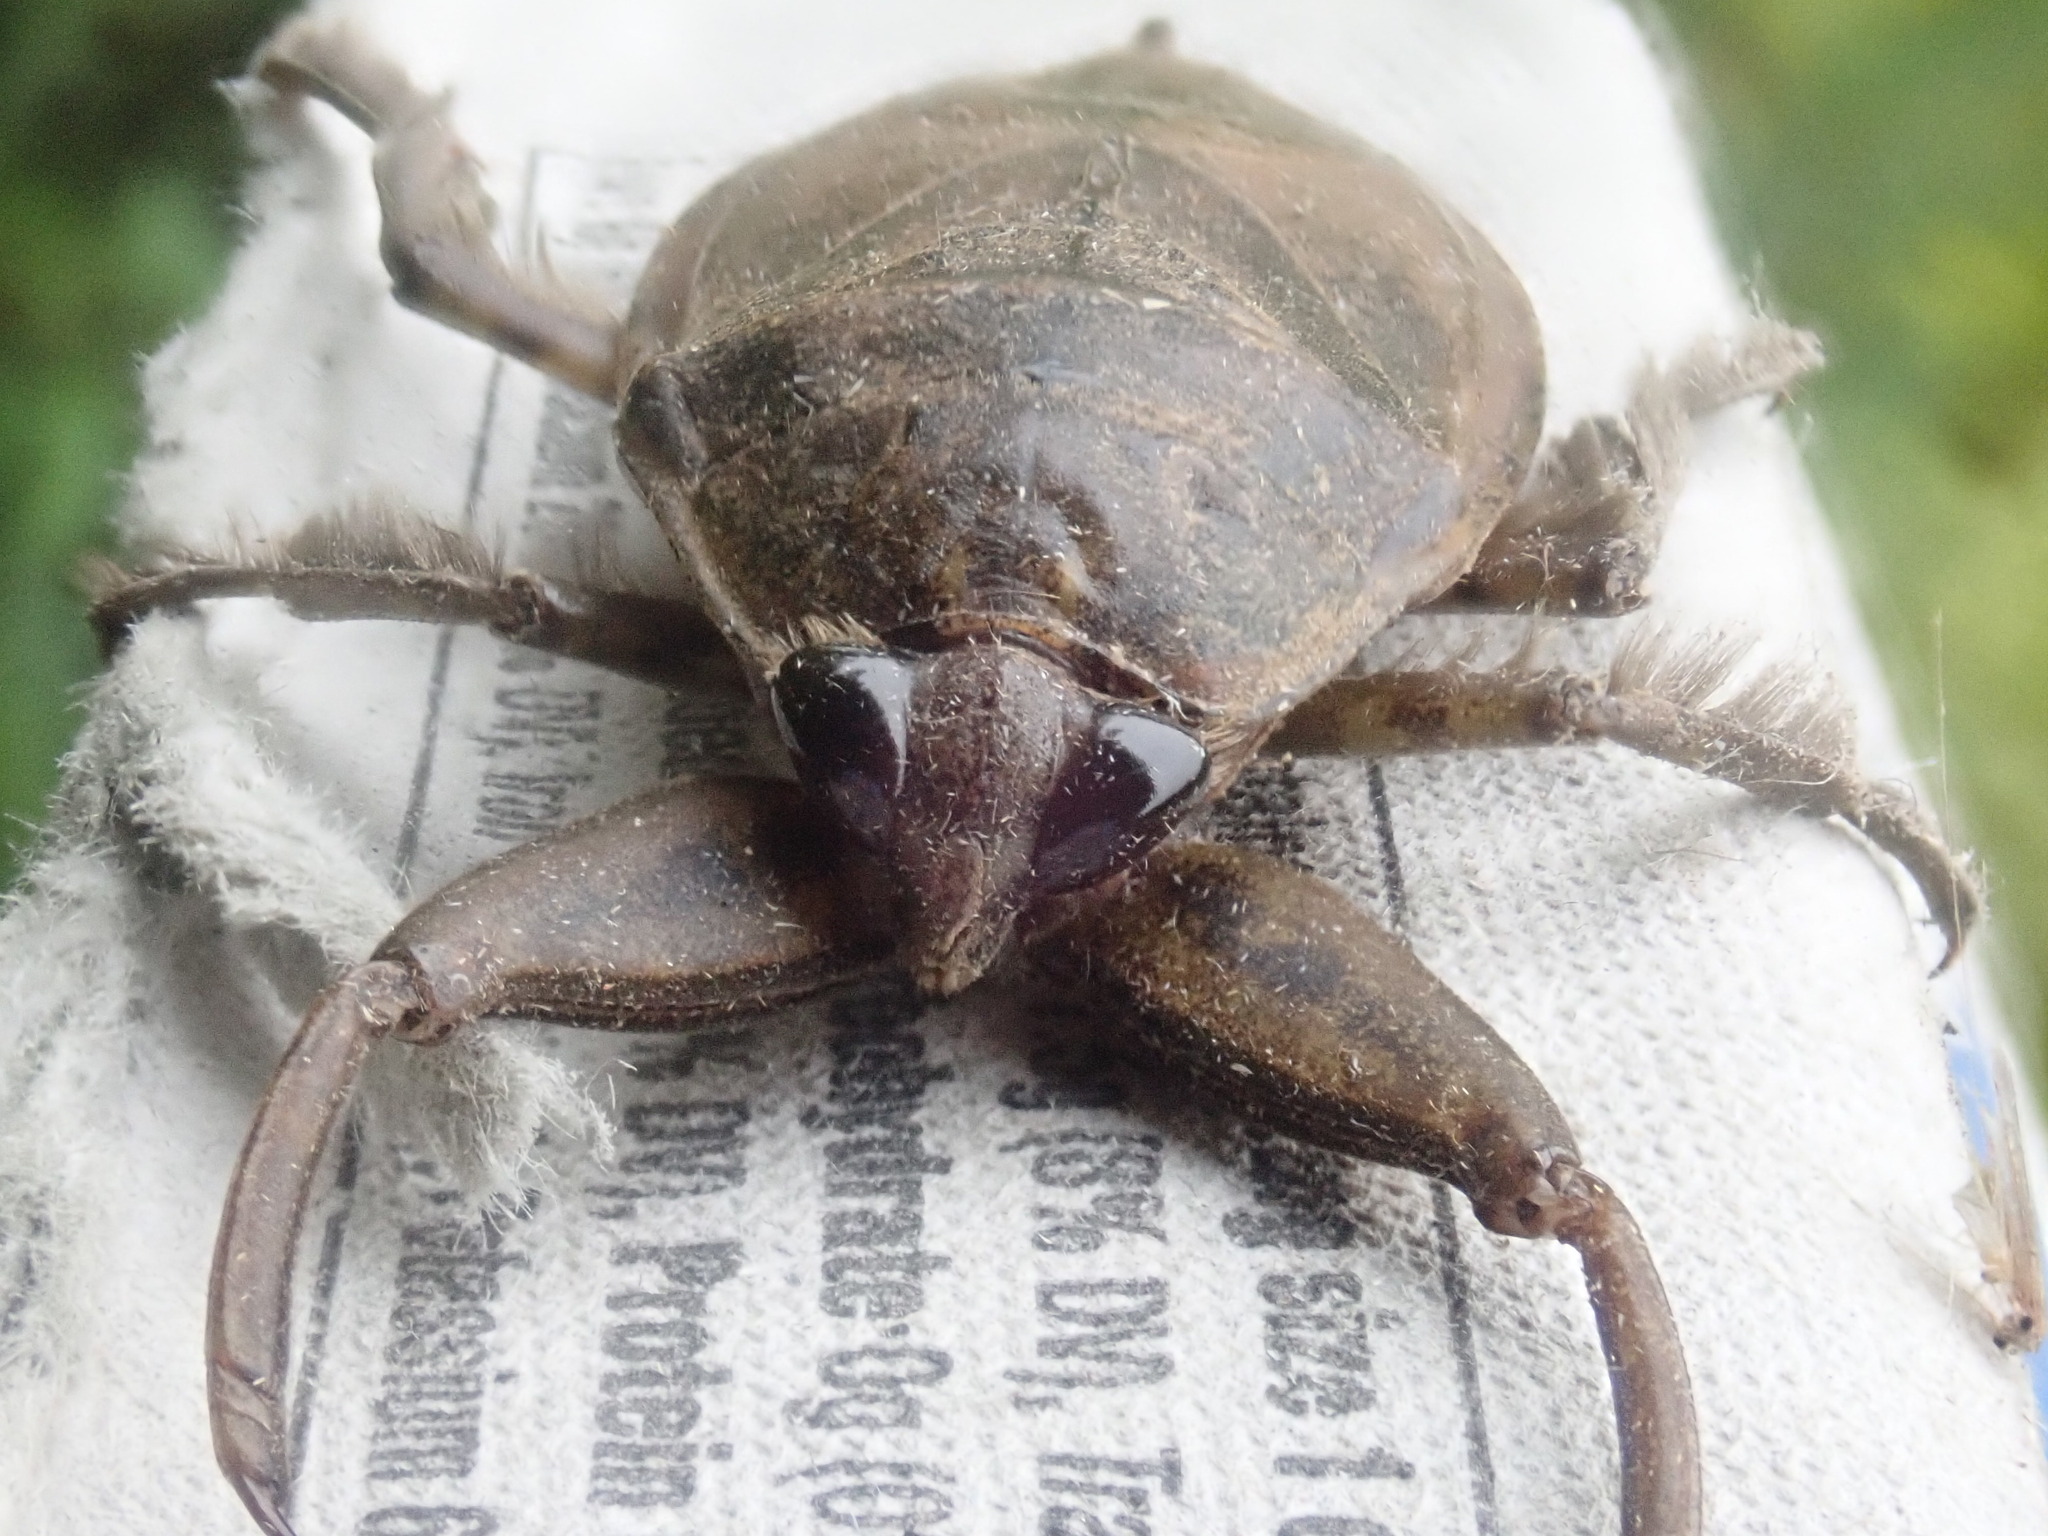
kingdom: Animalia
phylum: Arthropoda
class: Insecta
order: Hemiptera
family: Belostomatidae
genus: Lethocerus
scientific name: Lethocerus americanus
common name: Giant water bug
